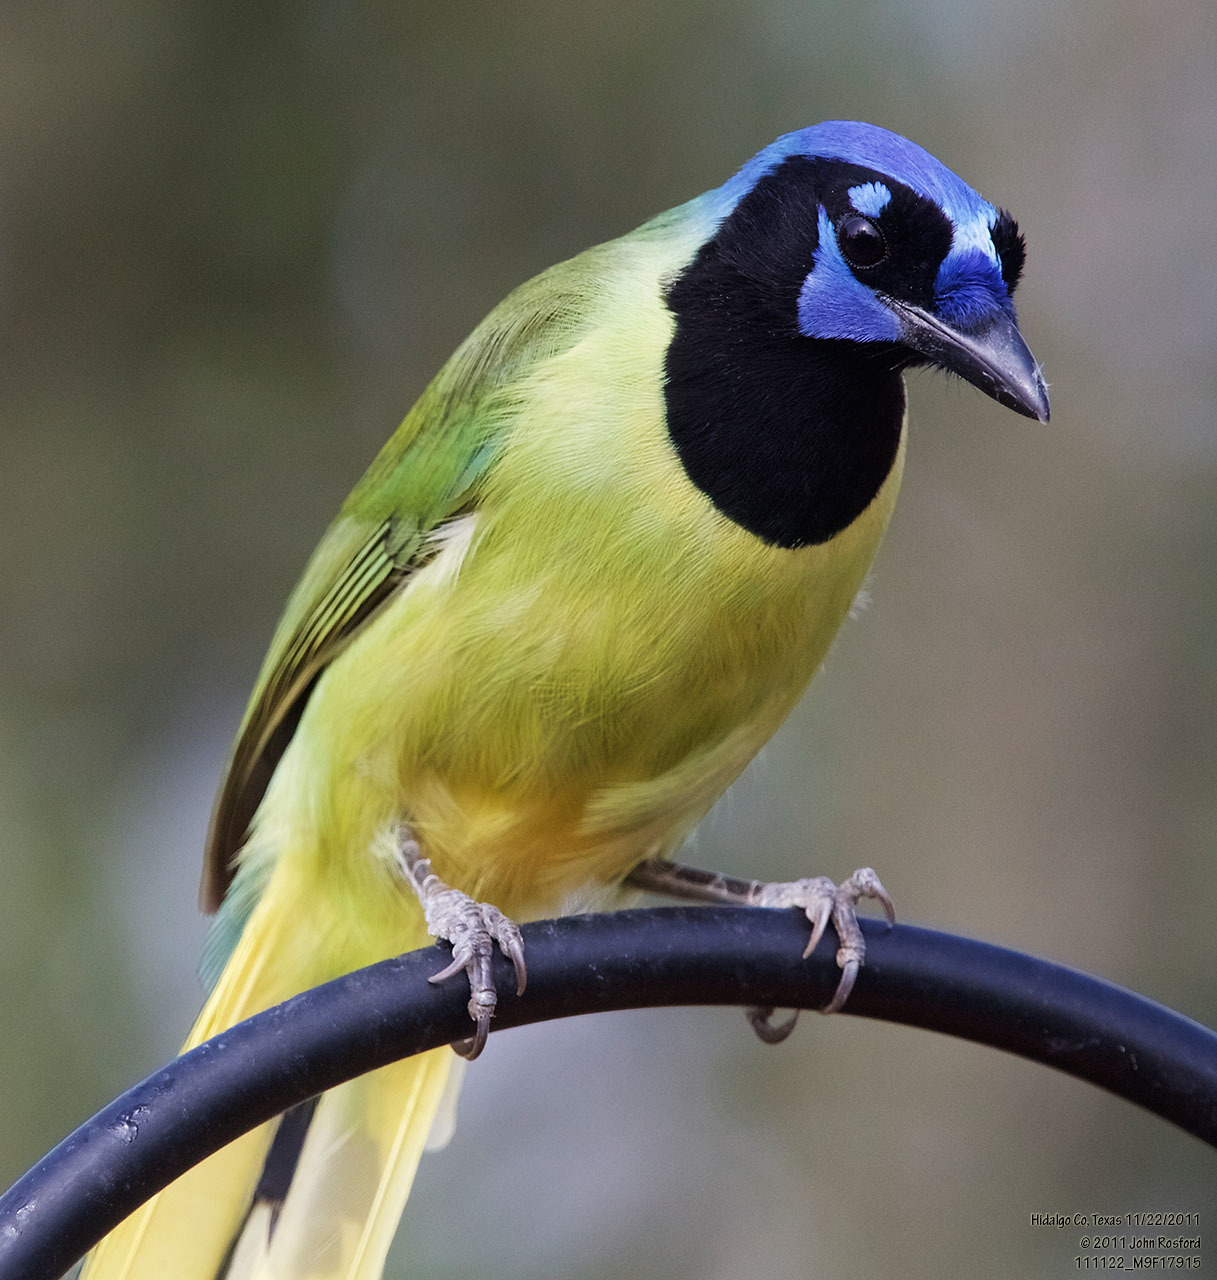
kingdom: Animalia
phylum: Chordata
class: Aves
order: Passeriformes
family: Corvidae
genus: Cyanocorax
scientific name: Cyanocorax yncas
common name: Green jay
